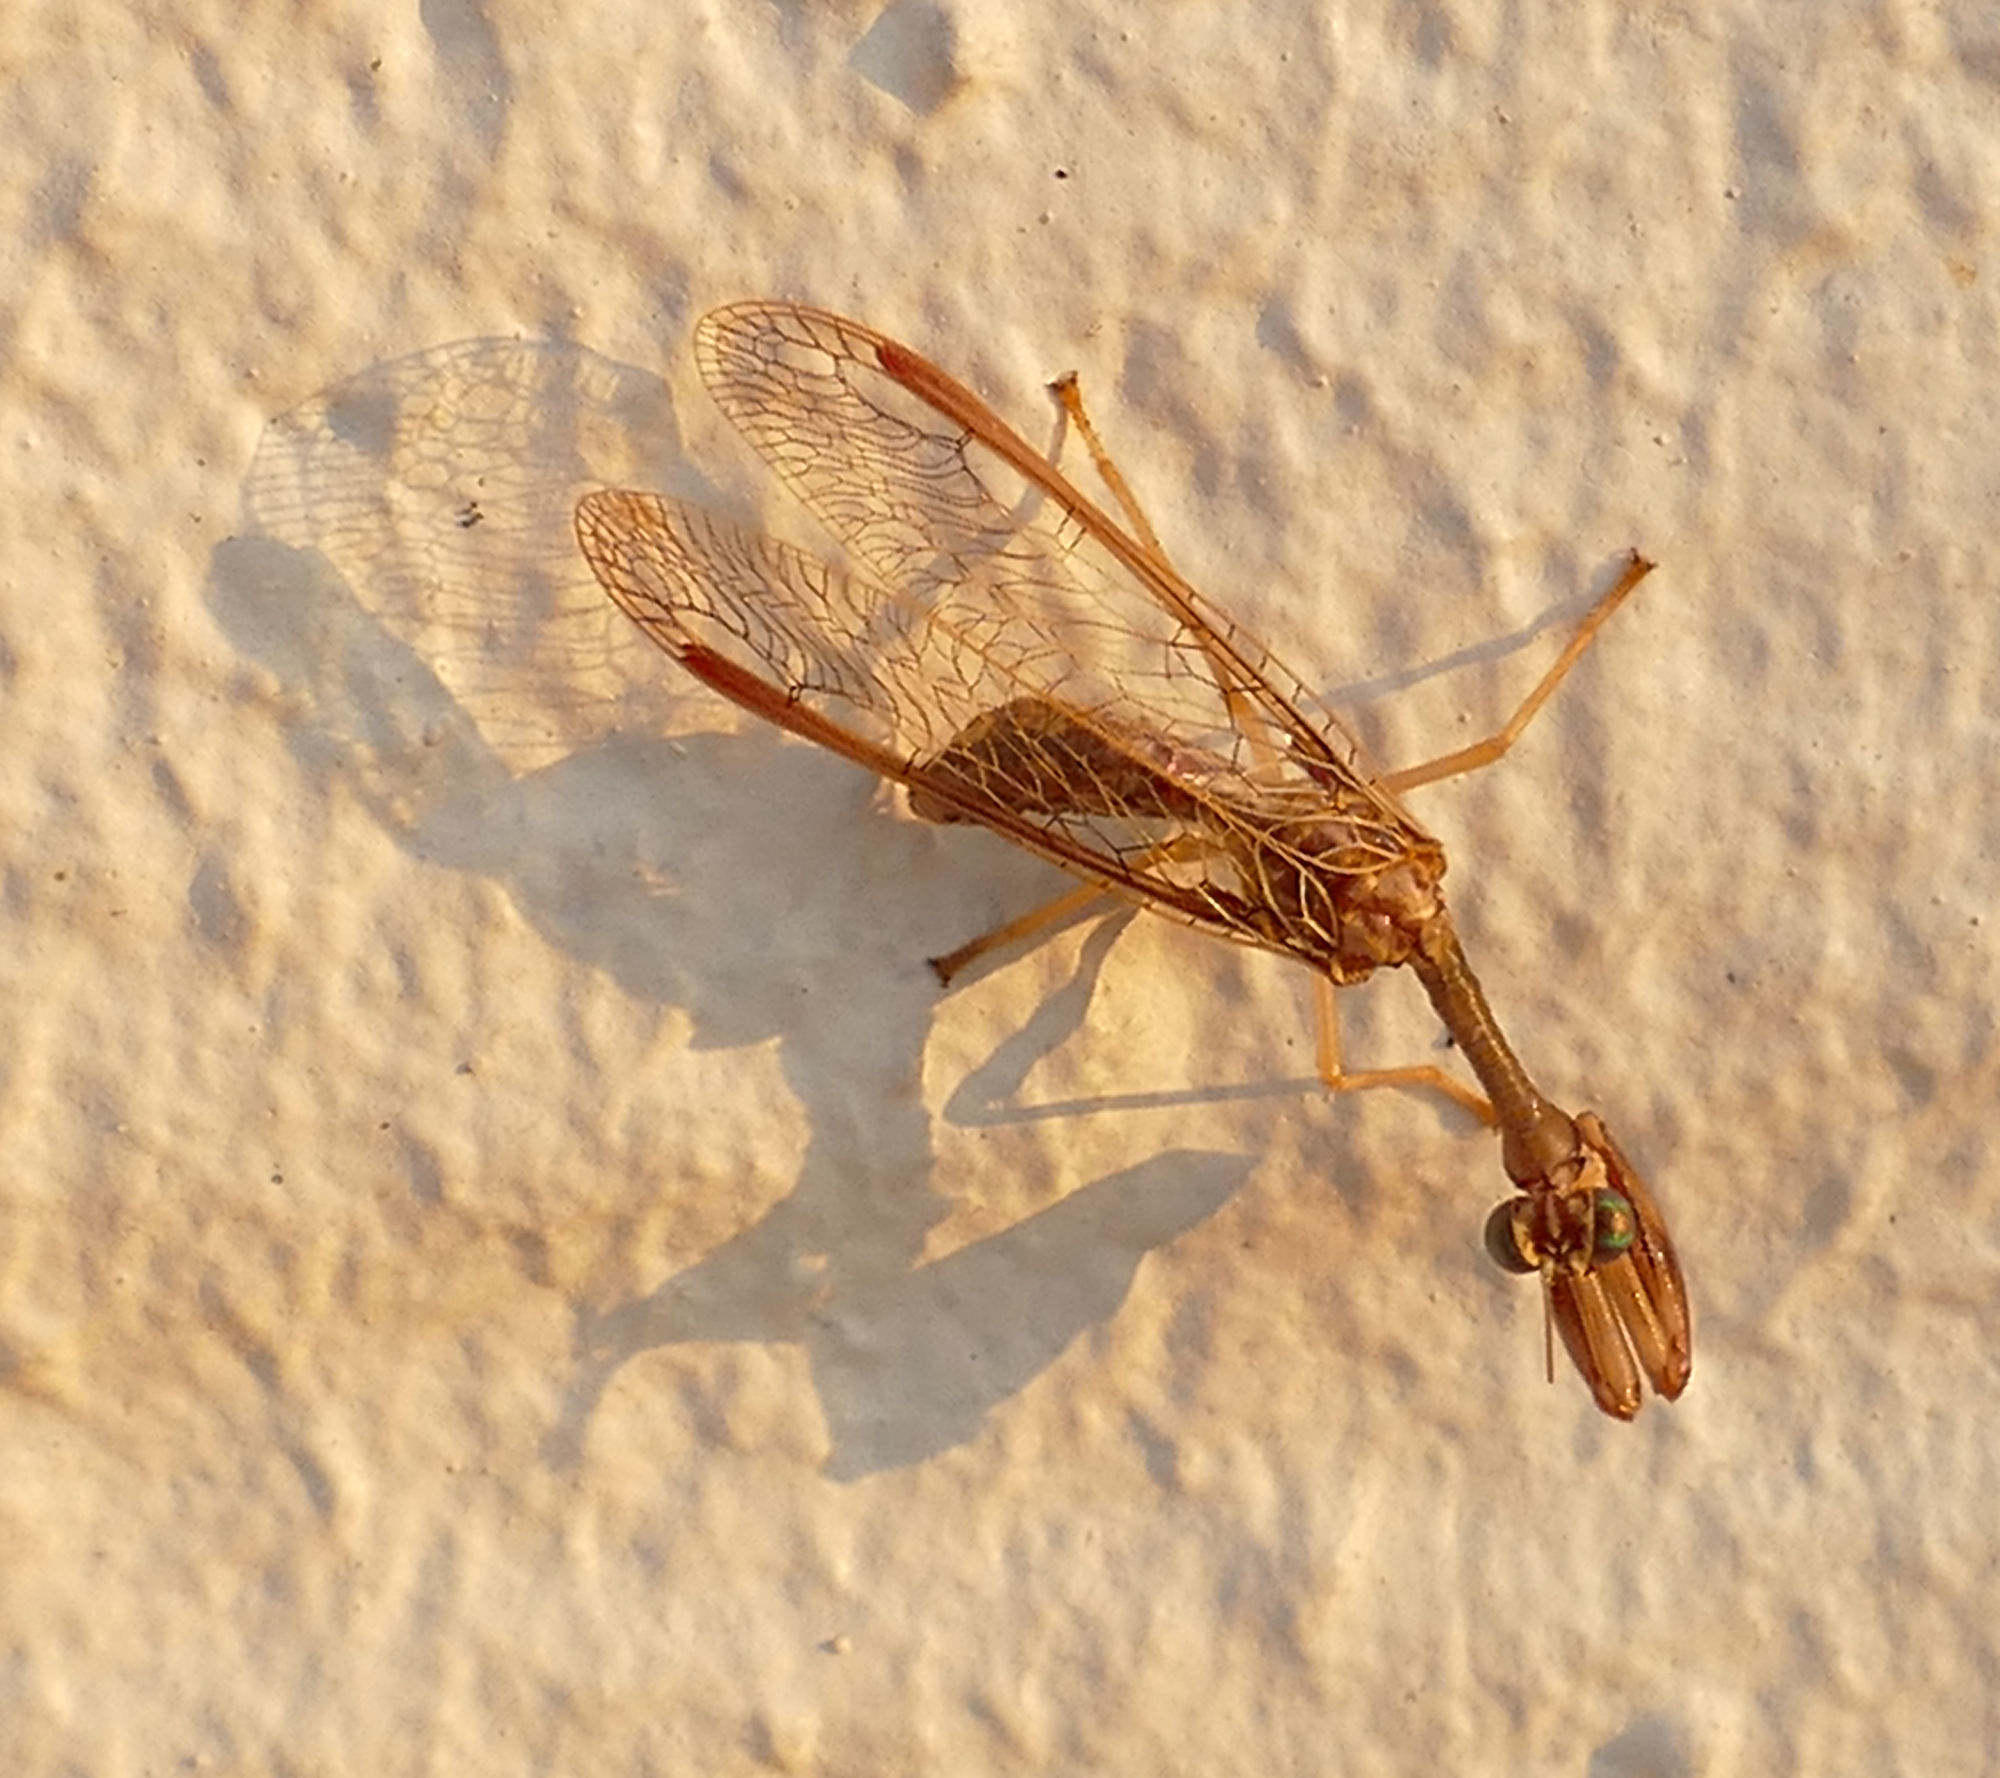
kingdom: Animalia
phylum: Arthropoda
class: Insecta
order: Neuroptera
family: Mantispidae
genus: Dicromantispa
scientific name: Dicromantispa sayi
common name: Say's mantidfly
